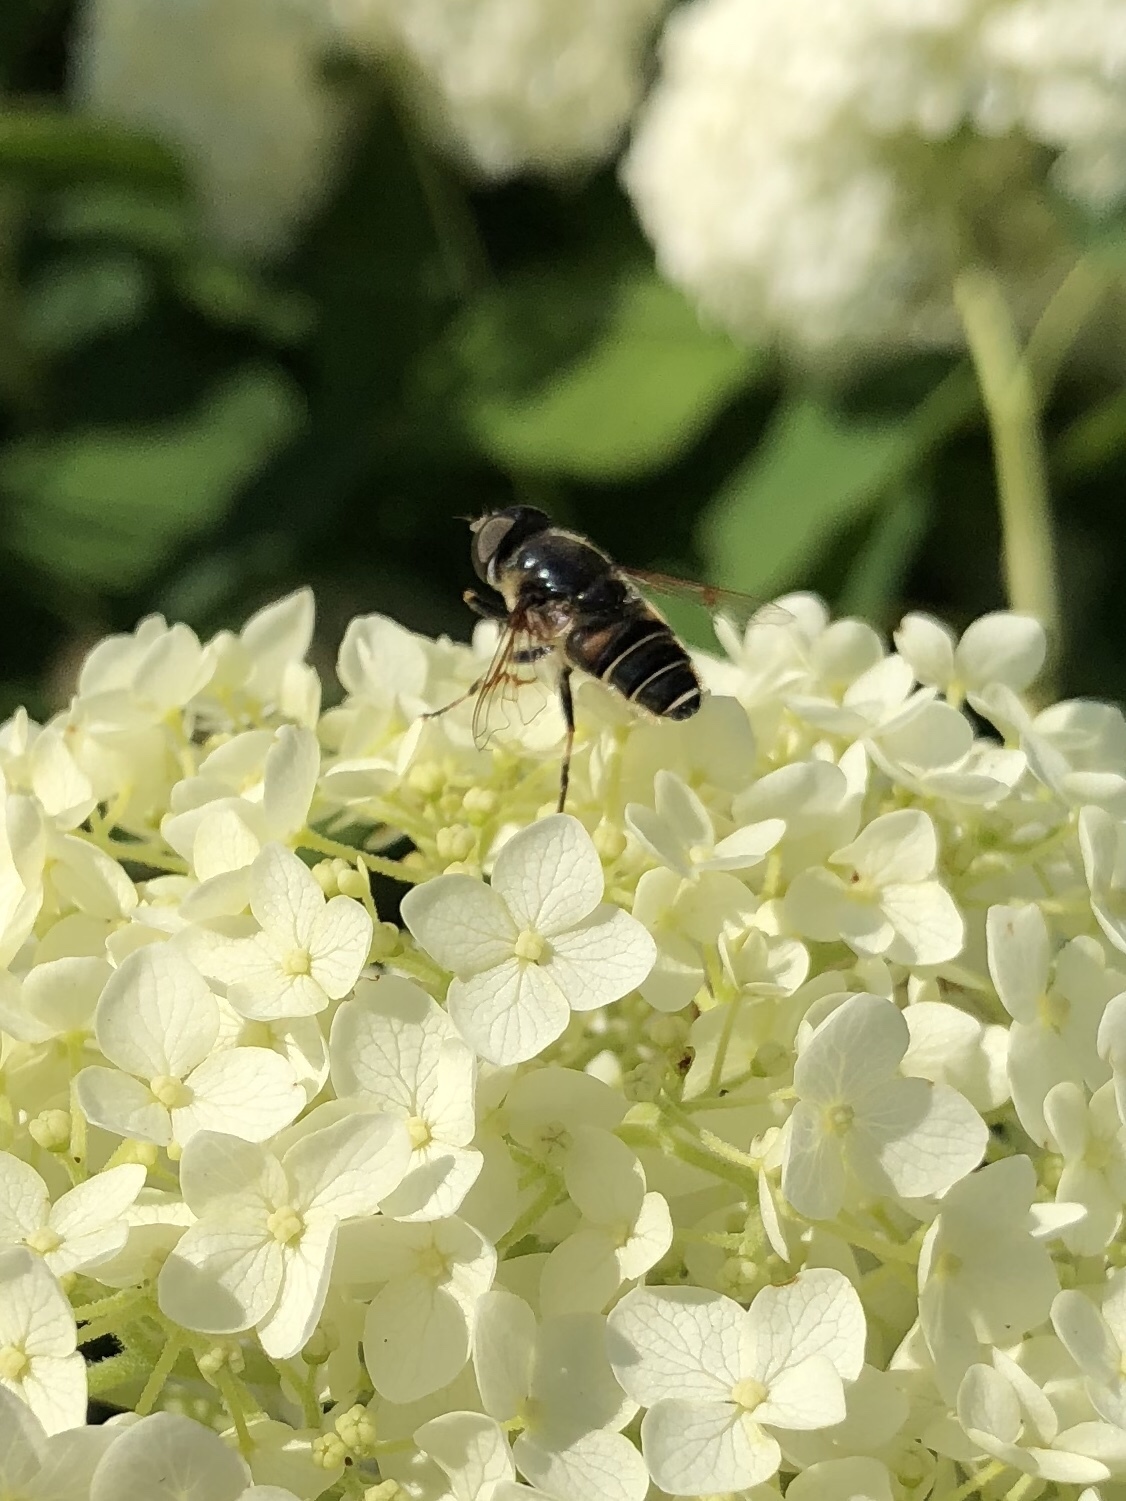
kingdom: Animalia
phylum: Arthropoda
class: Insecta
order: Diptera
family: Syrphidae
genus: Eristalis
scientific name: Eristalis dimidiata
